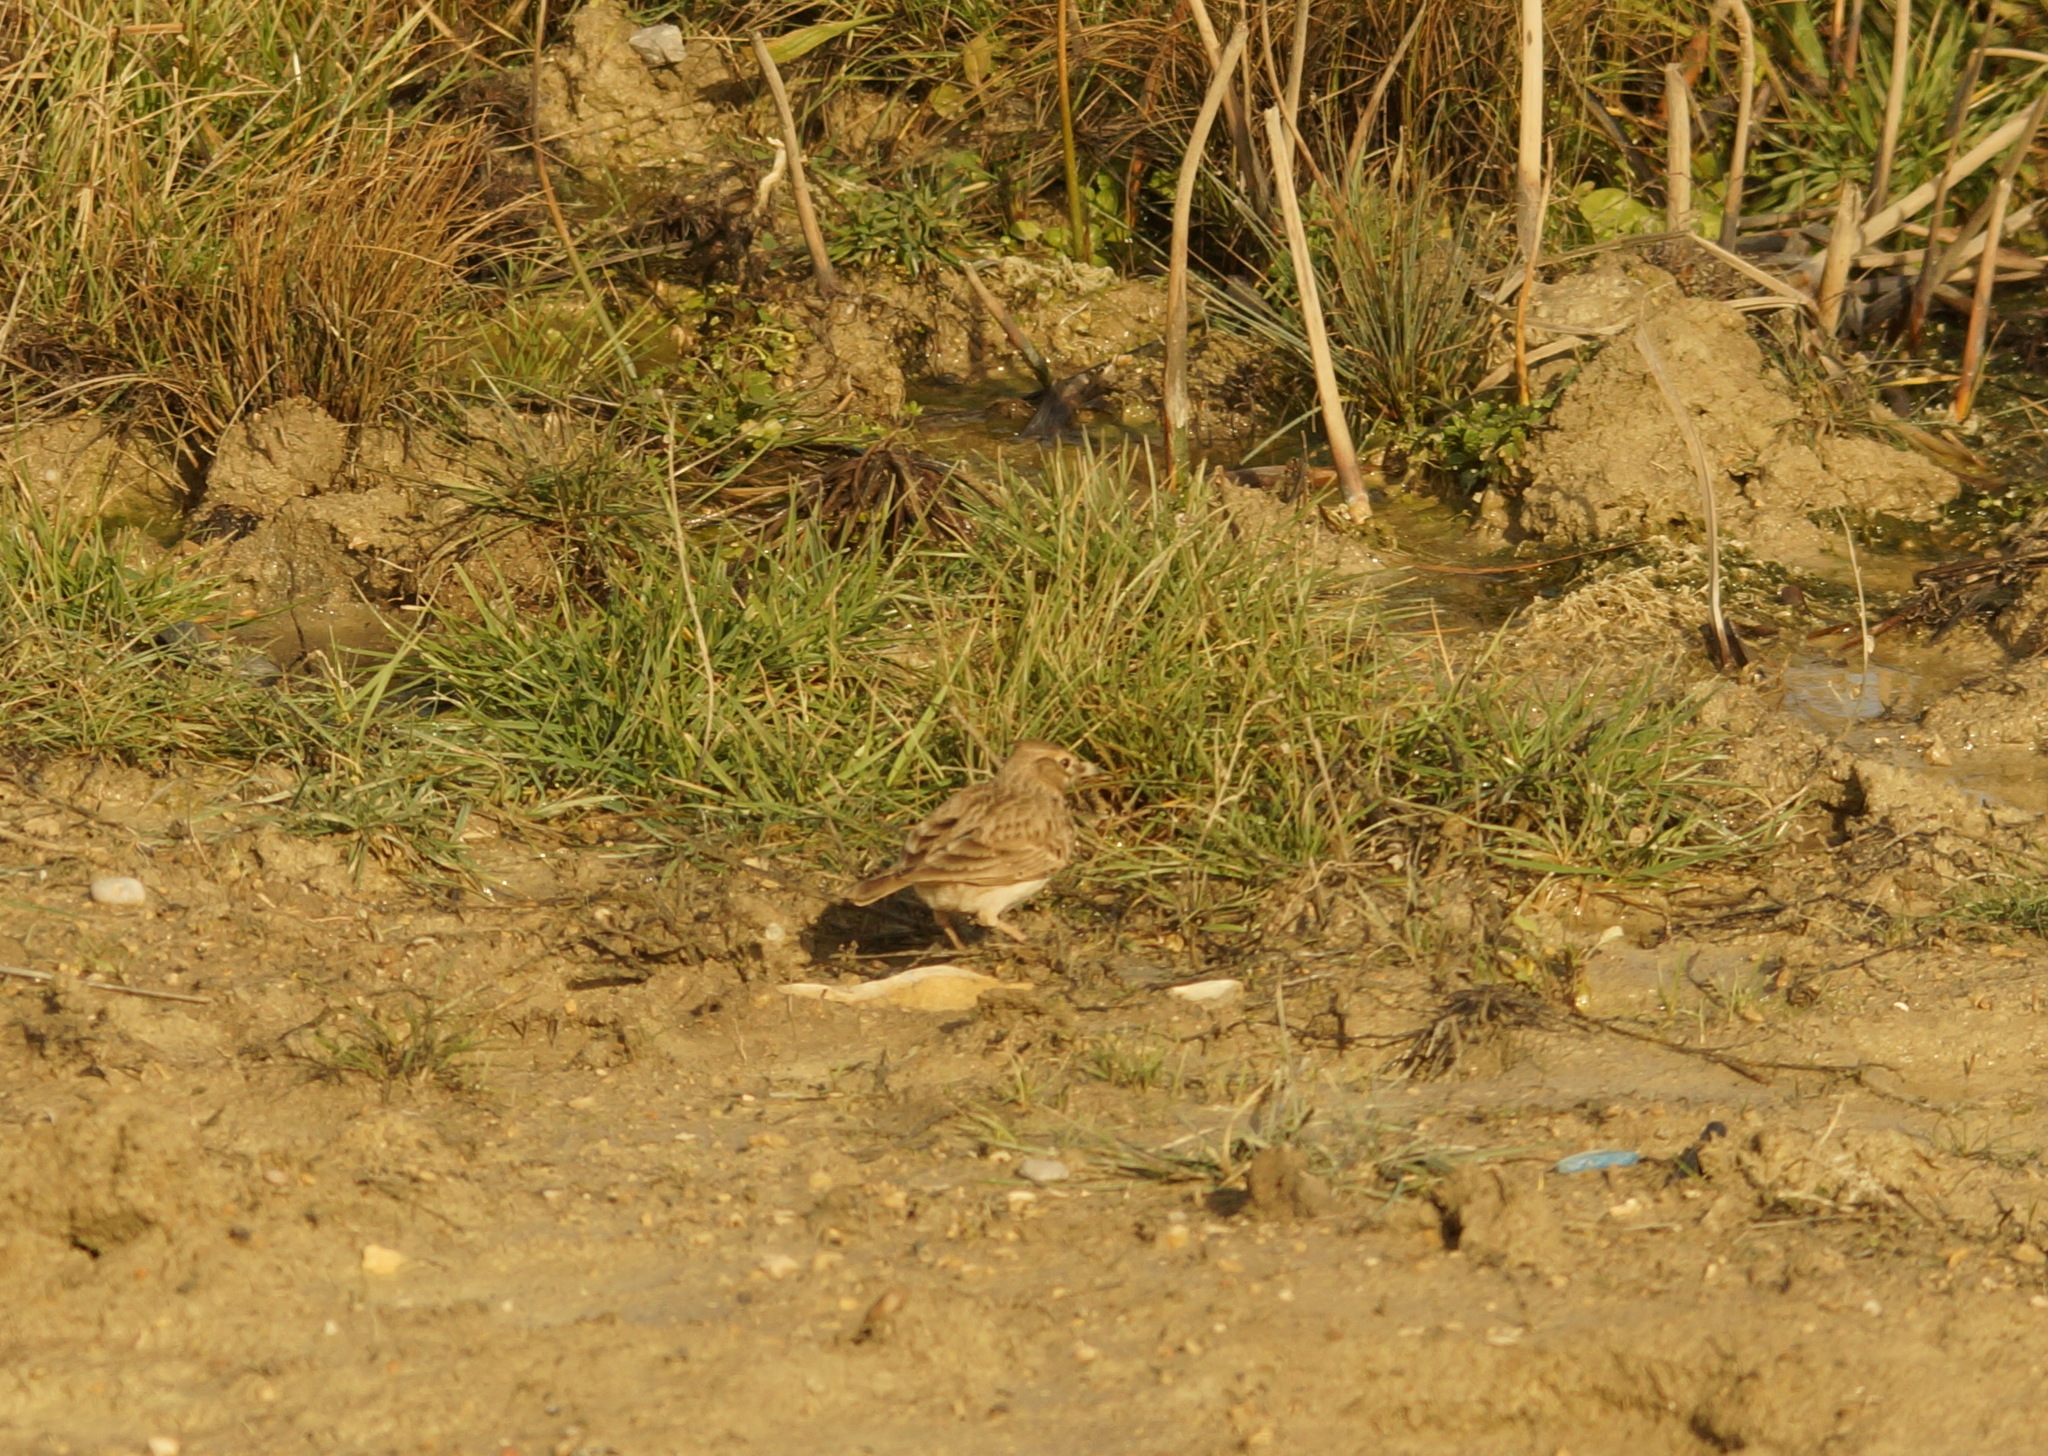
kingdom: Animalia
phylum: Chordata
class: Aves
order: Passeriformes
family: Alaudidae
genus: Galerida
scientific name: Galerida cristata
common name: Crested lark
